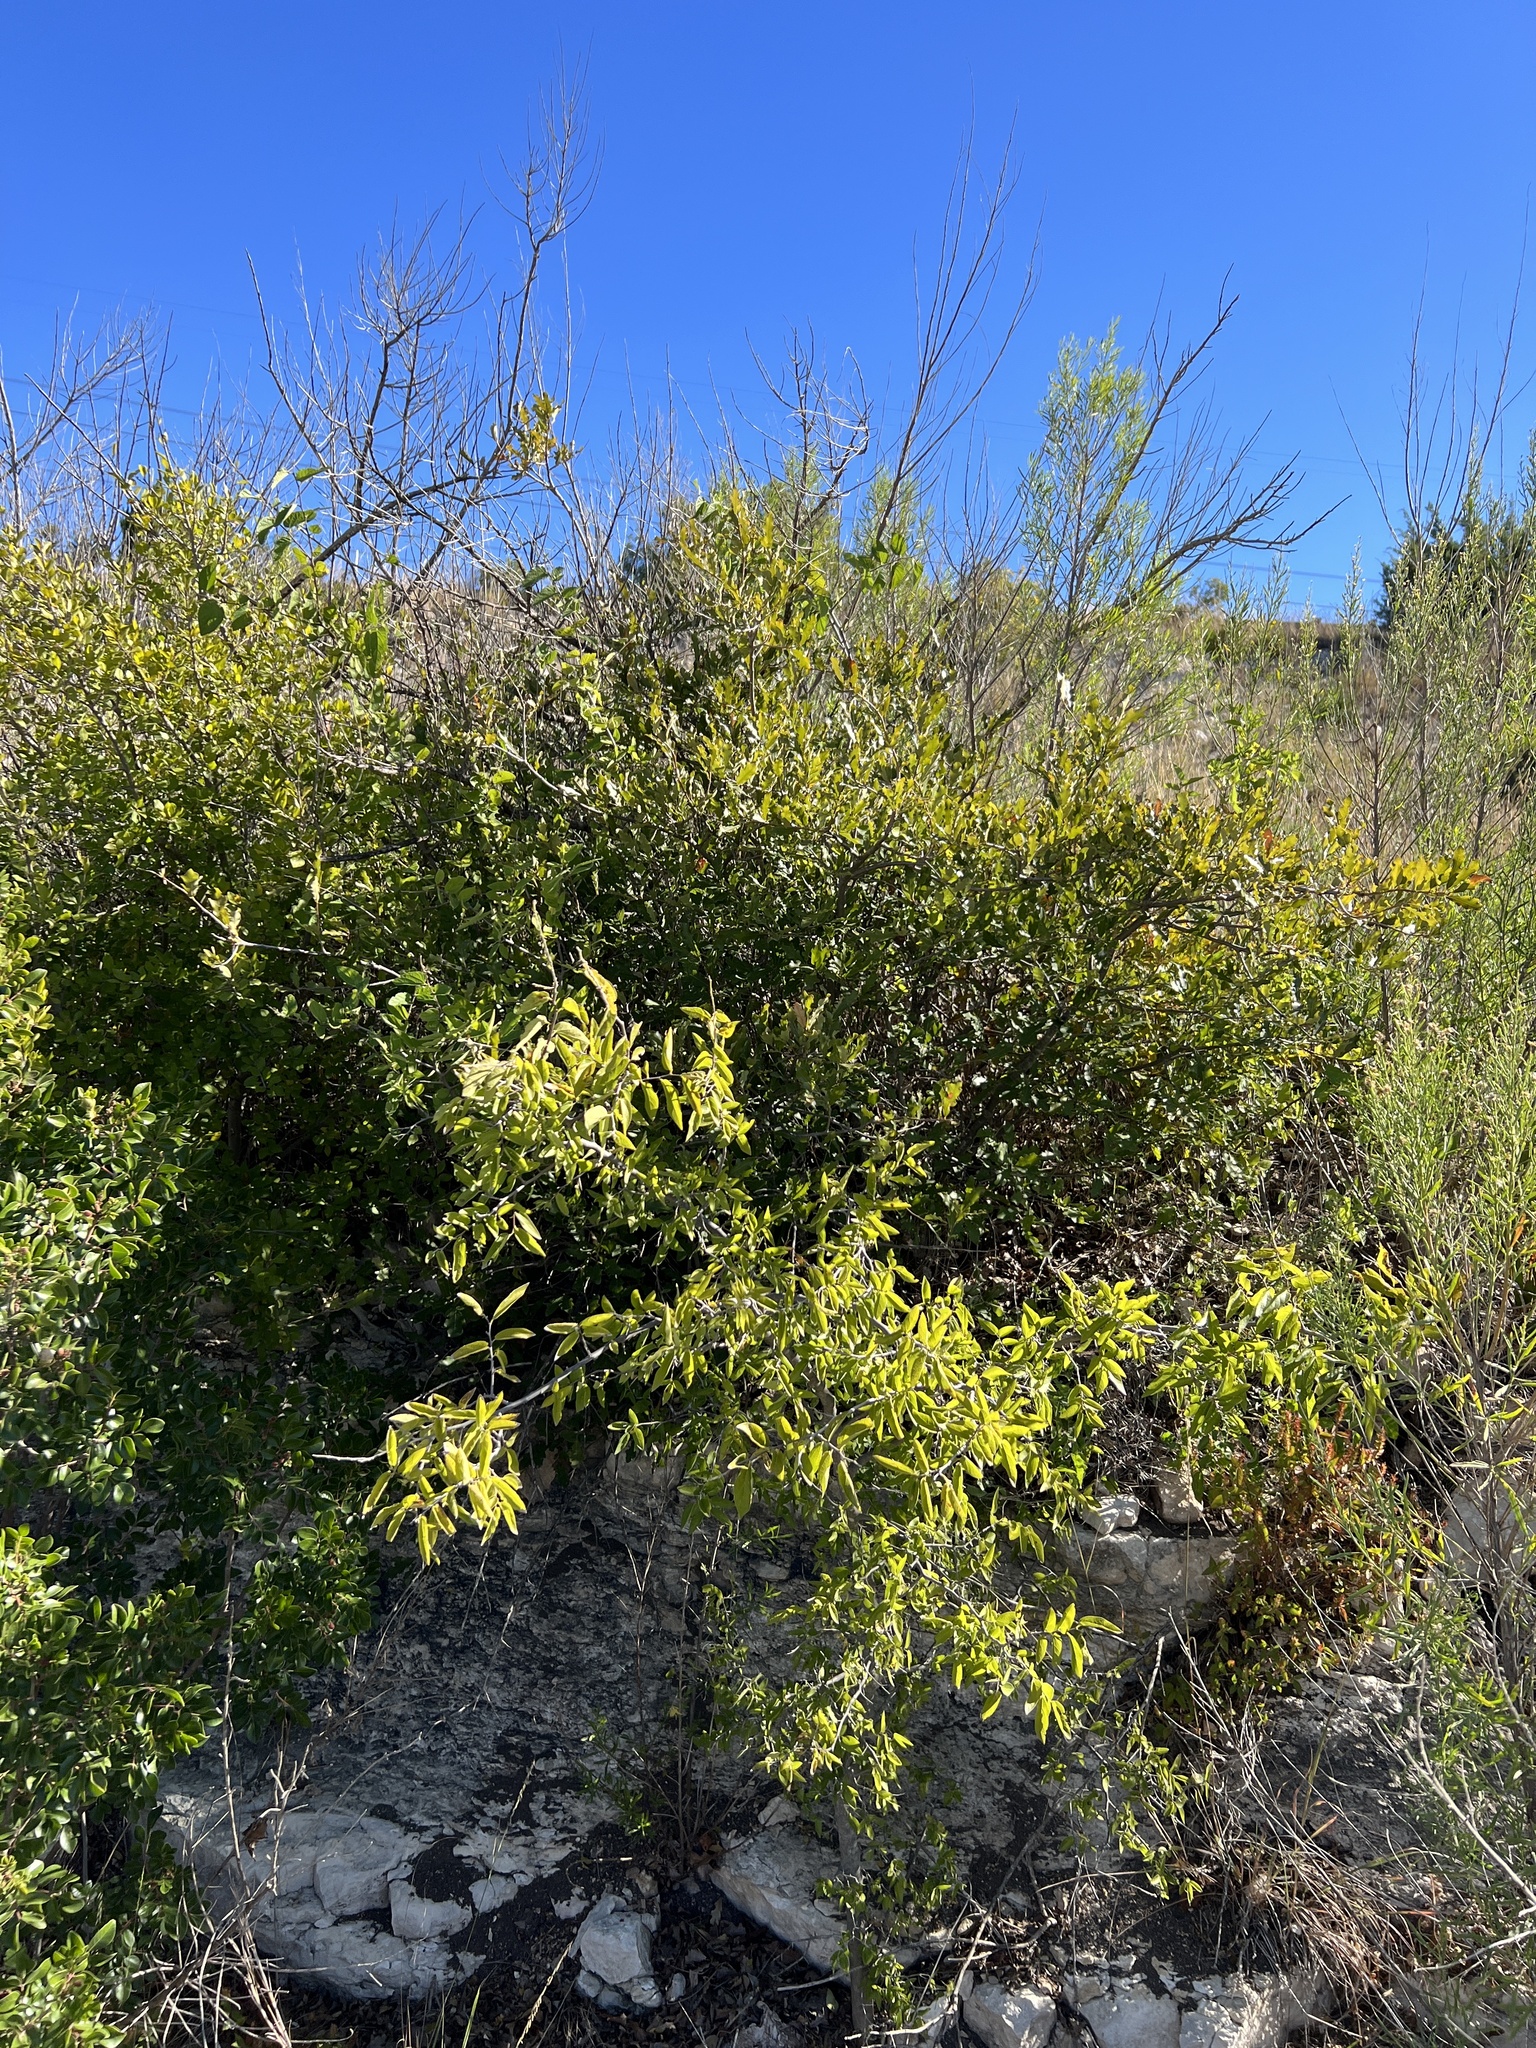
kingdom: Plantae
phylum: Tracheophyta
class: Magnoliopsida
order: Rosales
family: Cannabaceae
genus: Celtis
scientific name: Celtis reticulata
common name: Netleaf hackberry
